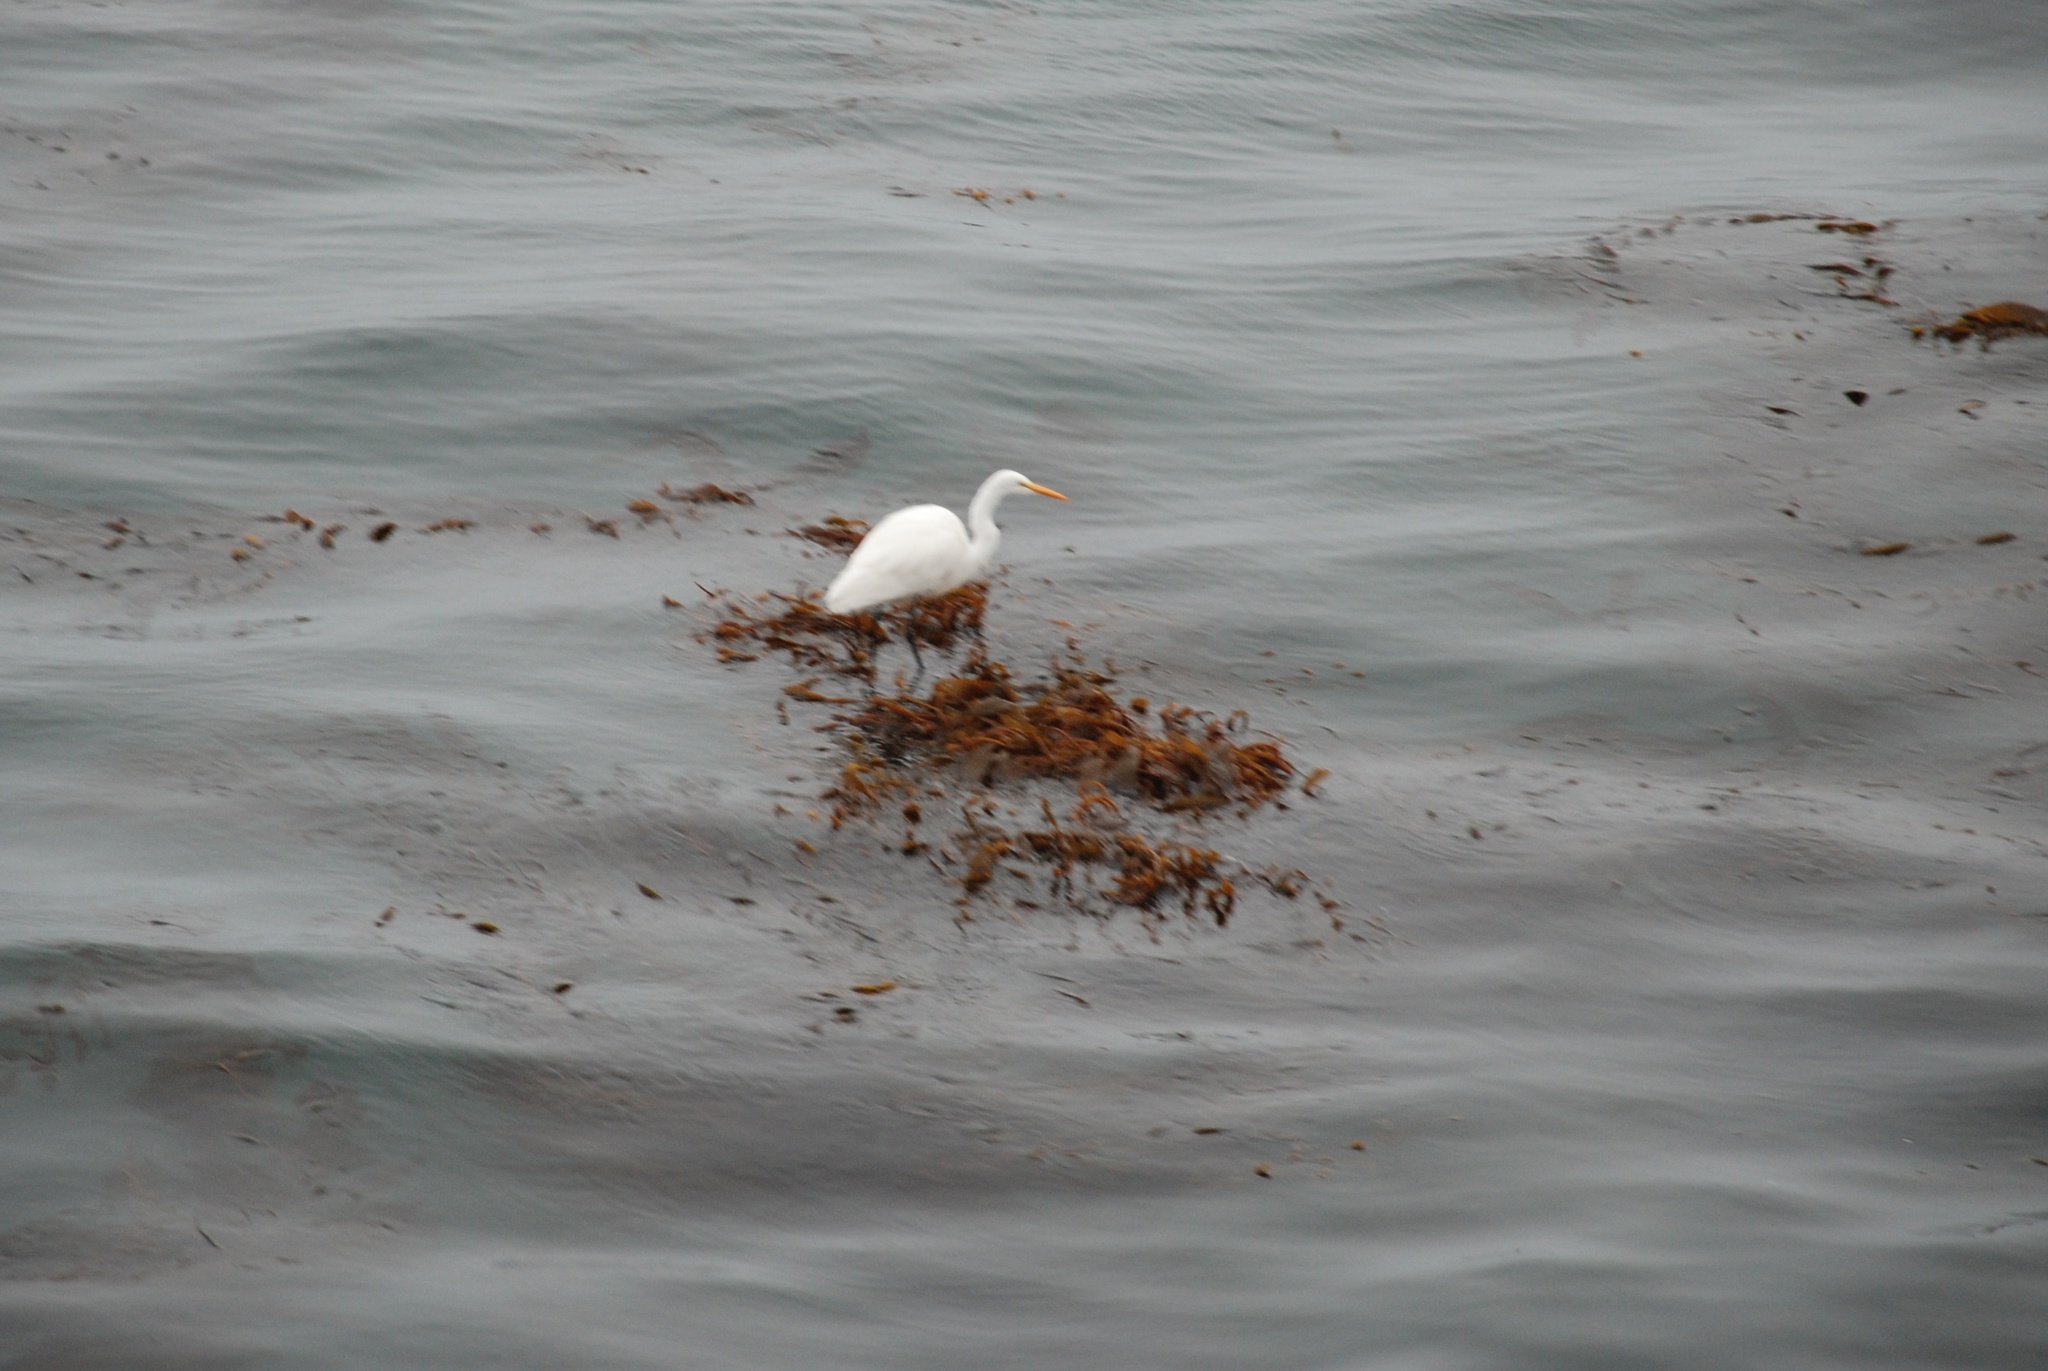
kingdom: Animalia
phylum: Chordata
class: Aves
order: Pelecaniformes
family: Ardeidae
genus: Ardea
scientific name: Ardea alba
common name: Great egret
